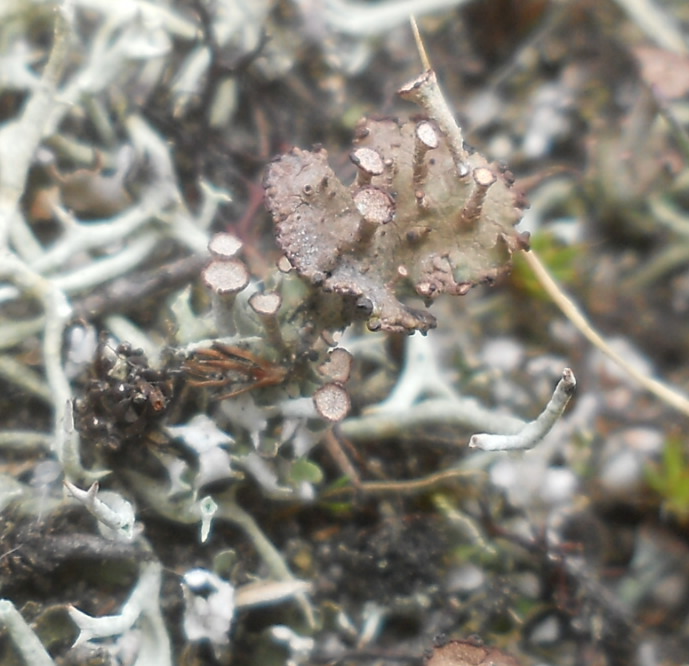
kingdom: Fungi
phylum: Ascomycota
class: Lecanoromycetes
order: Lecanorales
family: Cladoniaceae
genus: Cladonia
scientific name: Cladonia cervicornis
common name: Browned pixie-cup lichen
